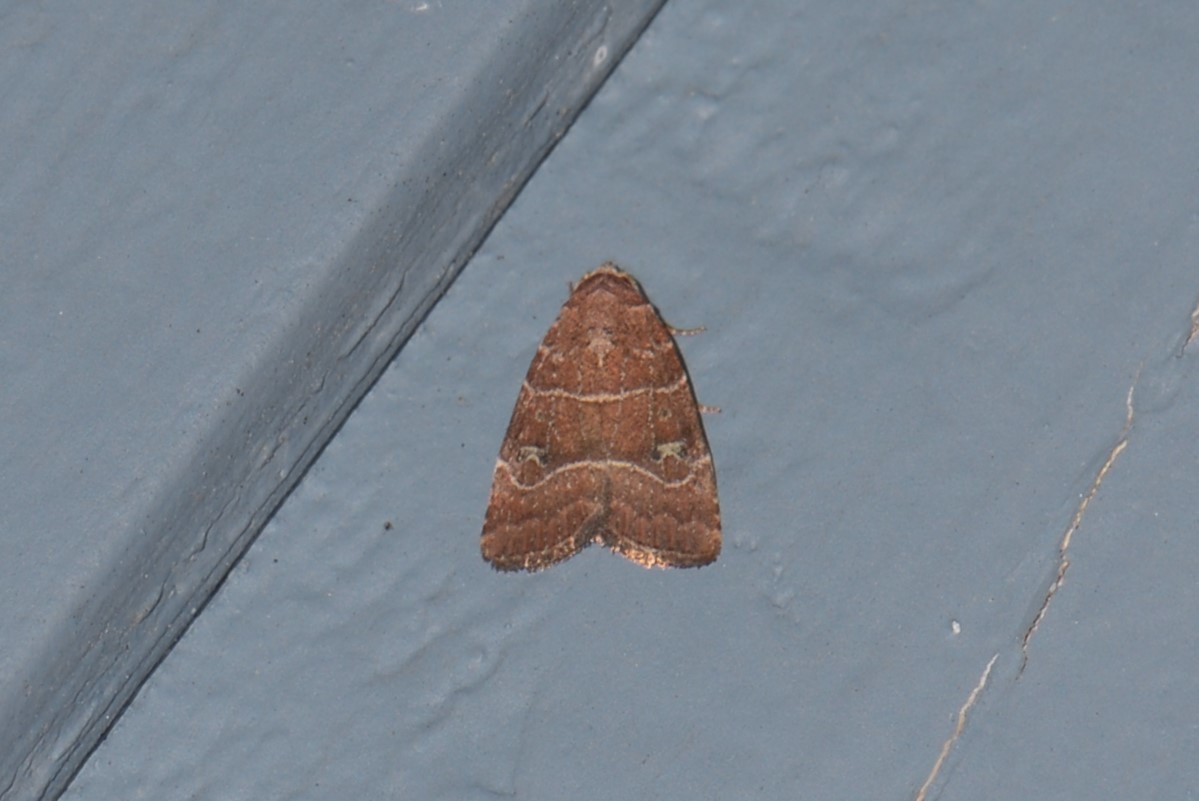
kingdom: Animalia
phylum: Arthropoda
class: Insecta
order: Lepidoptera
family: Noctuidae
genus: Elaphria
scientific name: Elaphria grata
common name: Grateful midget moth
